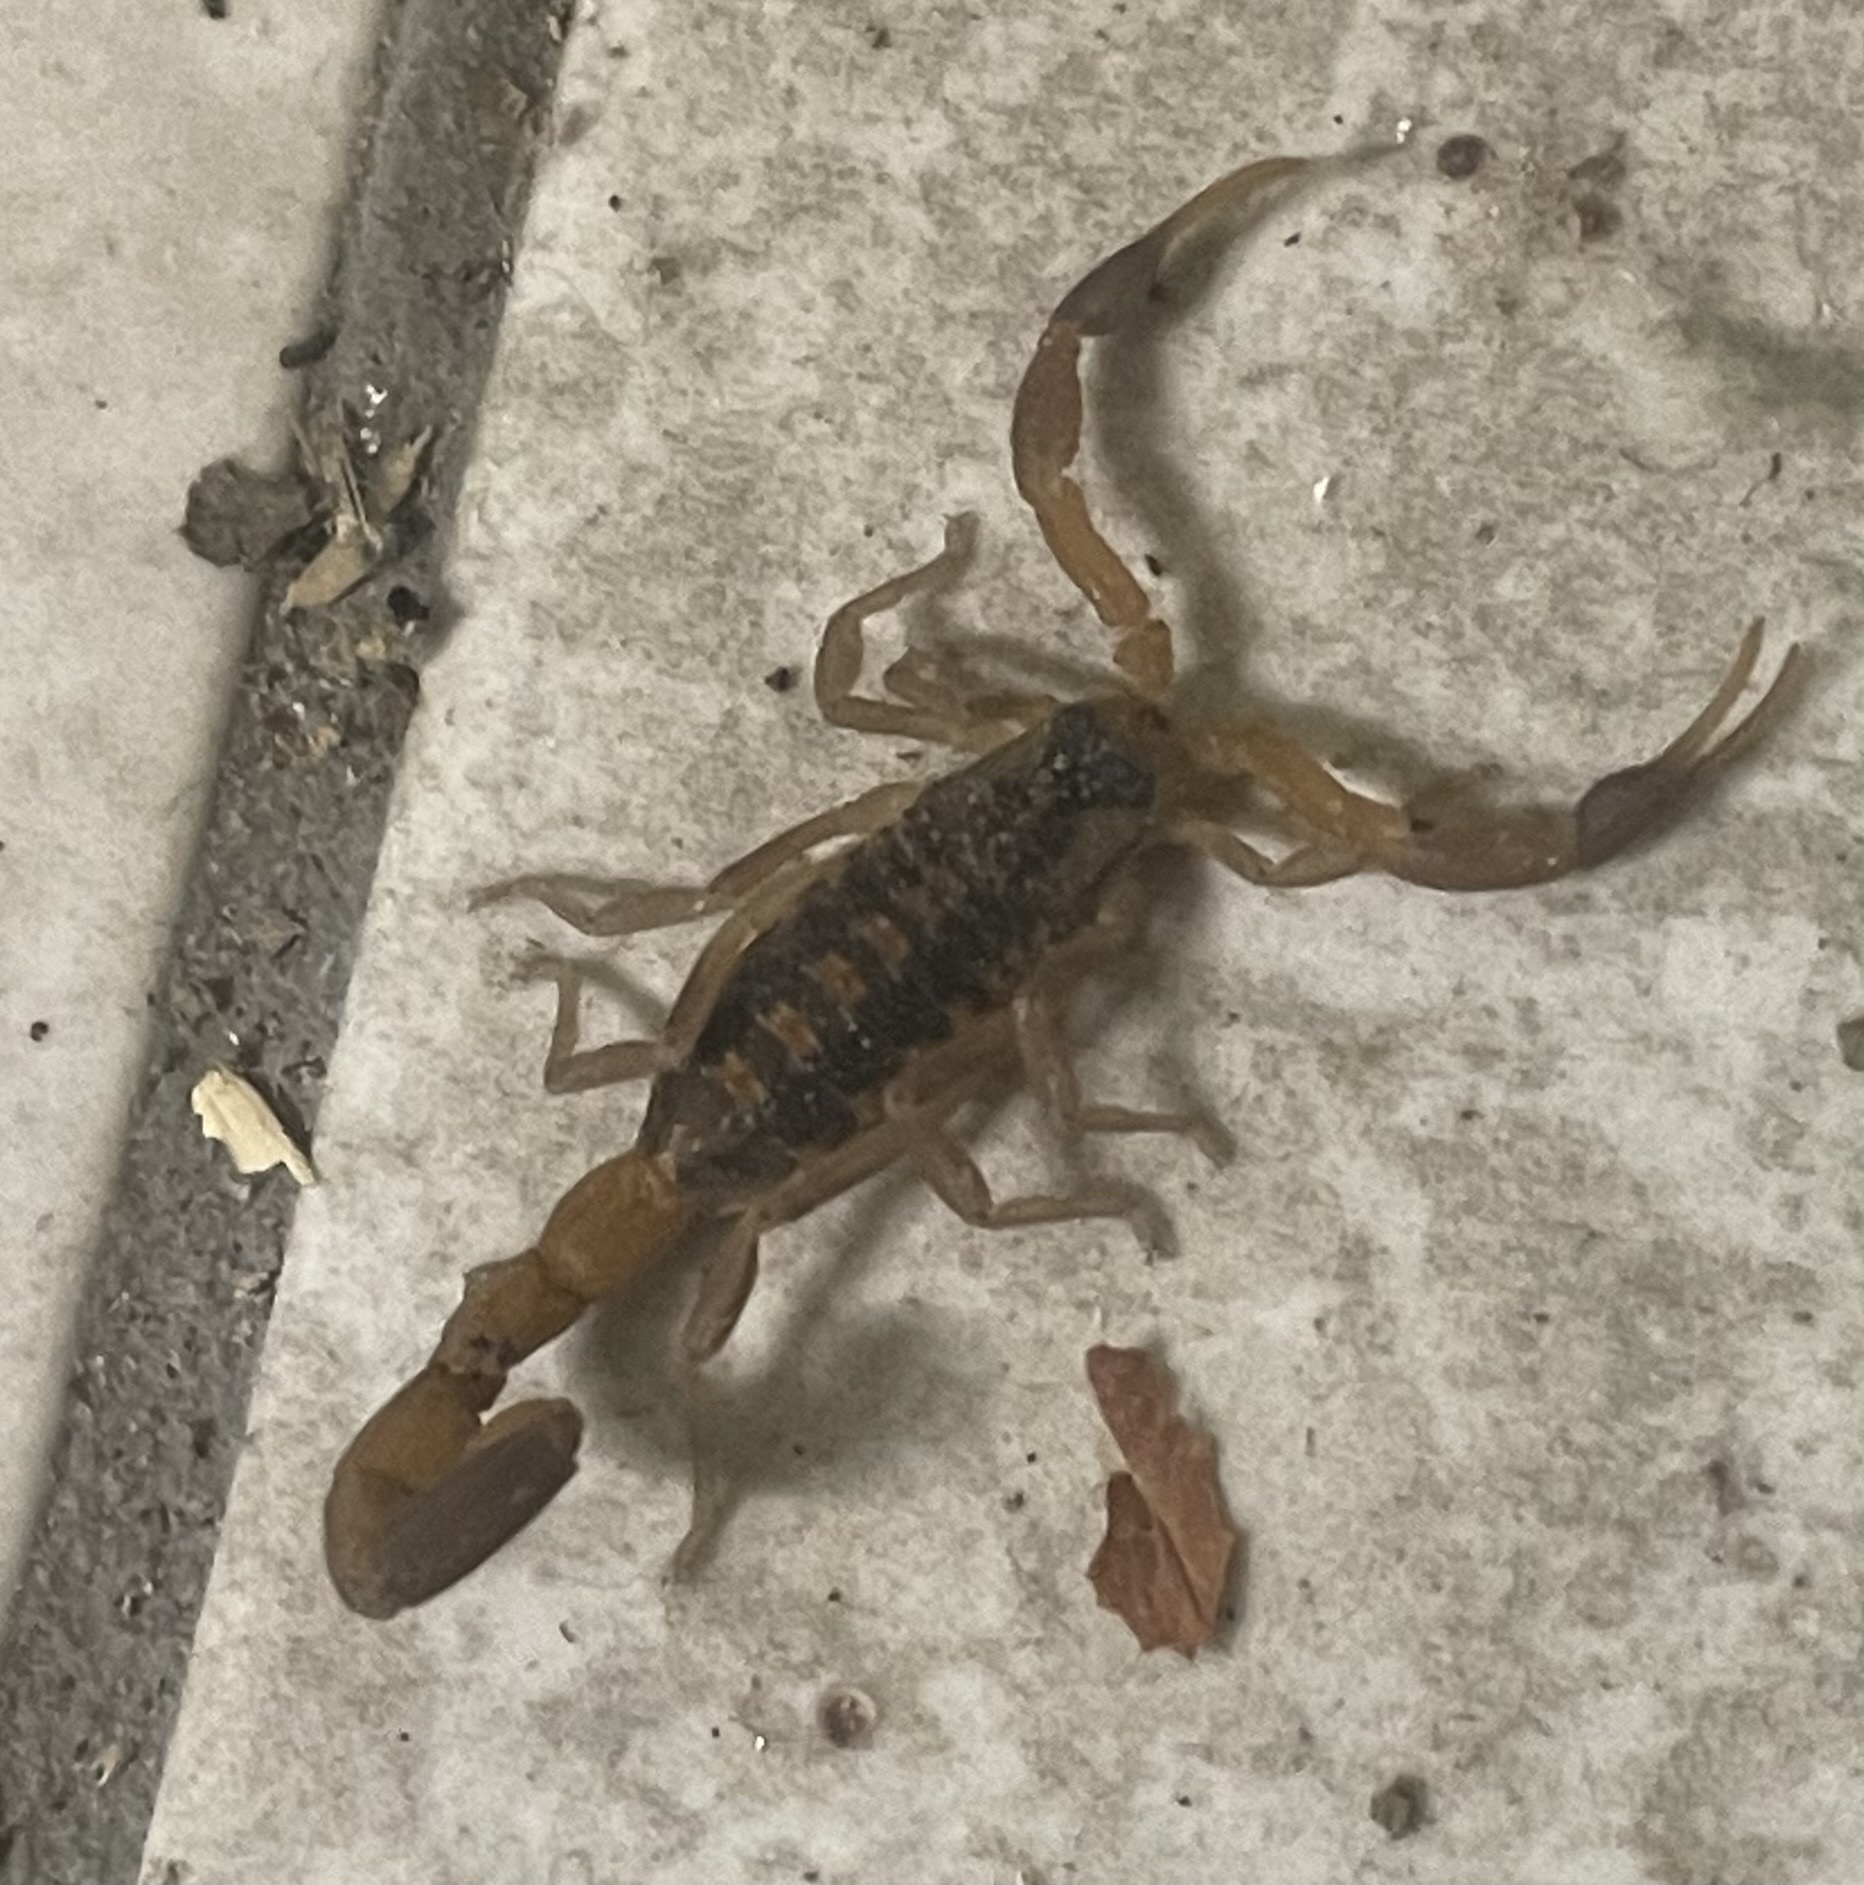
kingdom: Animalia
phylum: Arthropoda
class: Arachnida
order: Scorpiones
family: Buthidae
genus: Centruroides
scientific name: Centruroides vittatus
